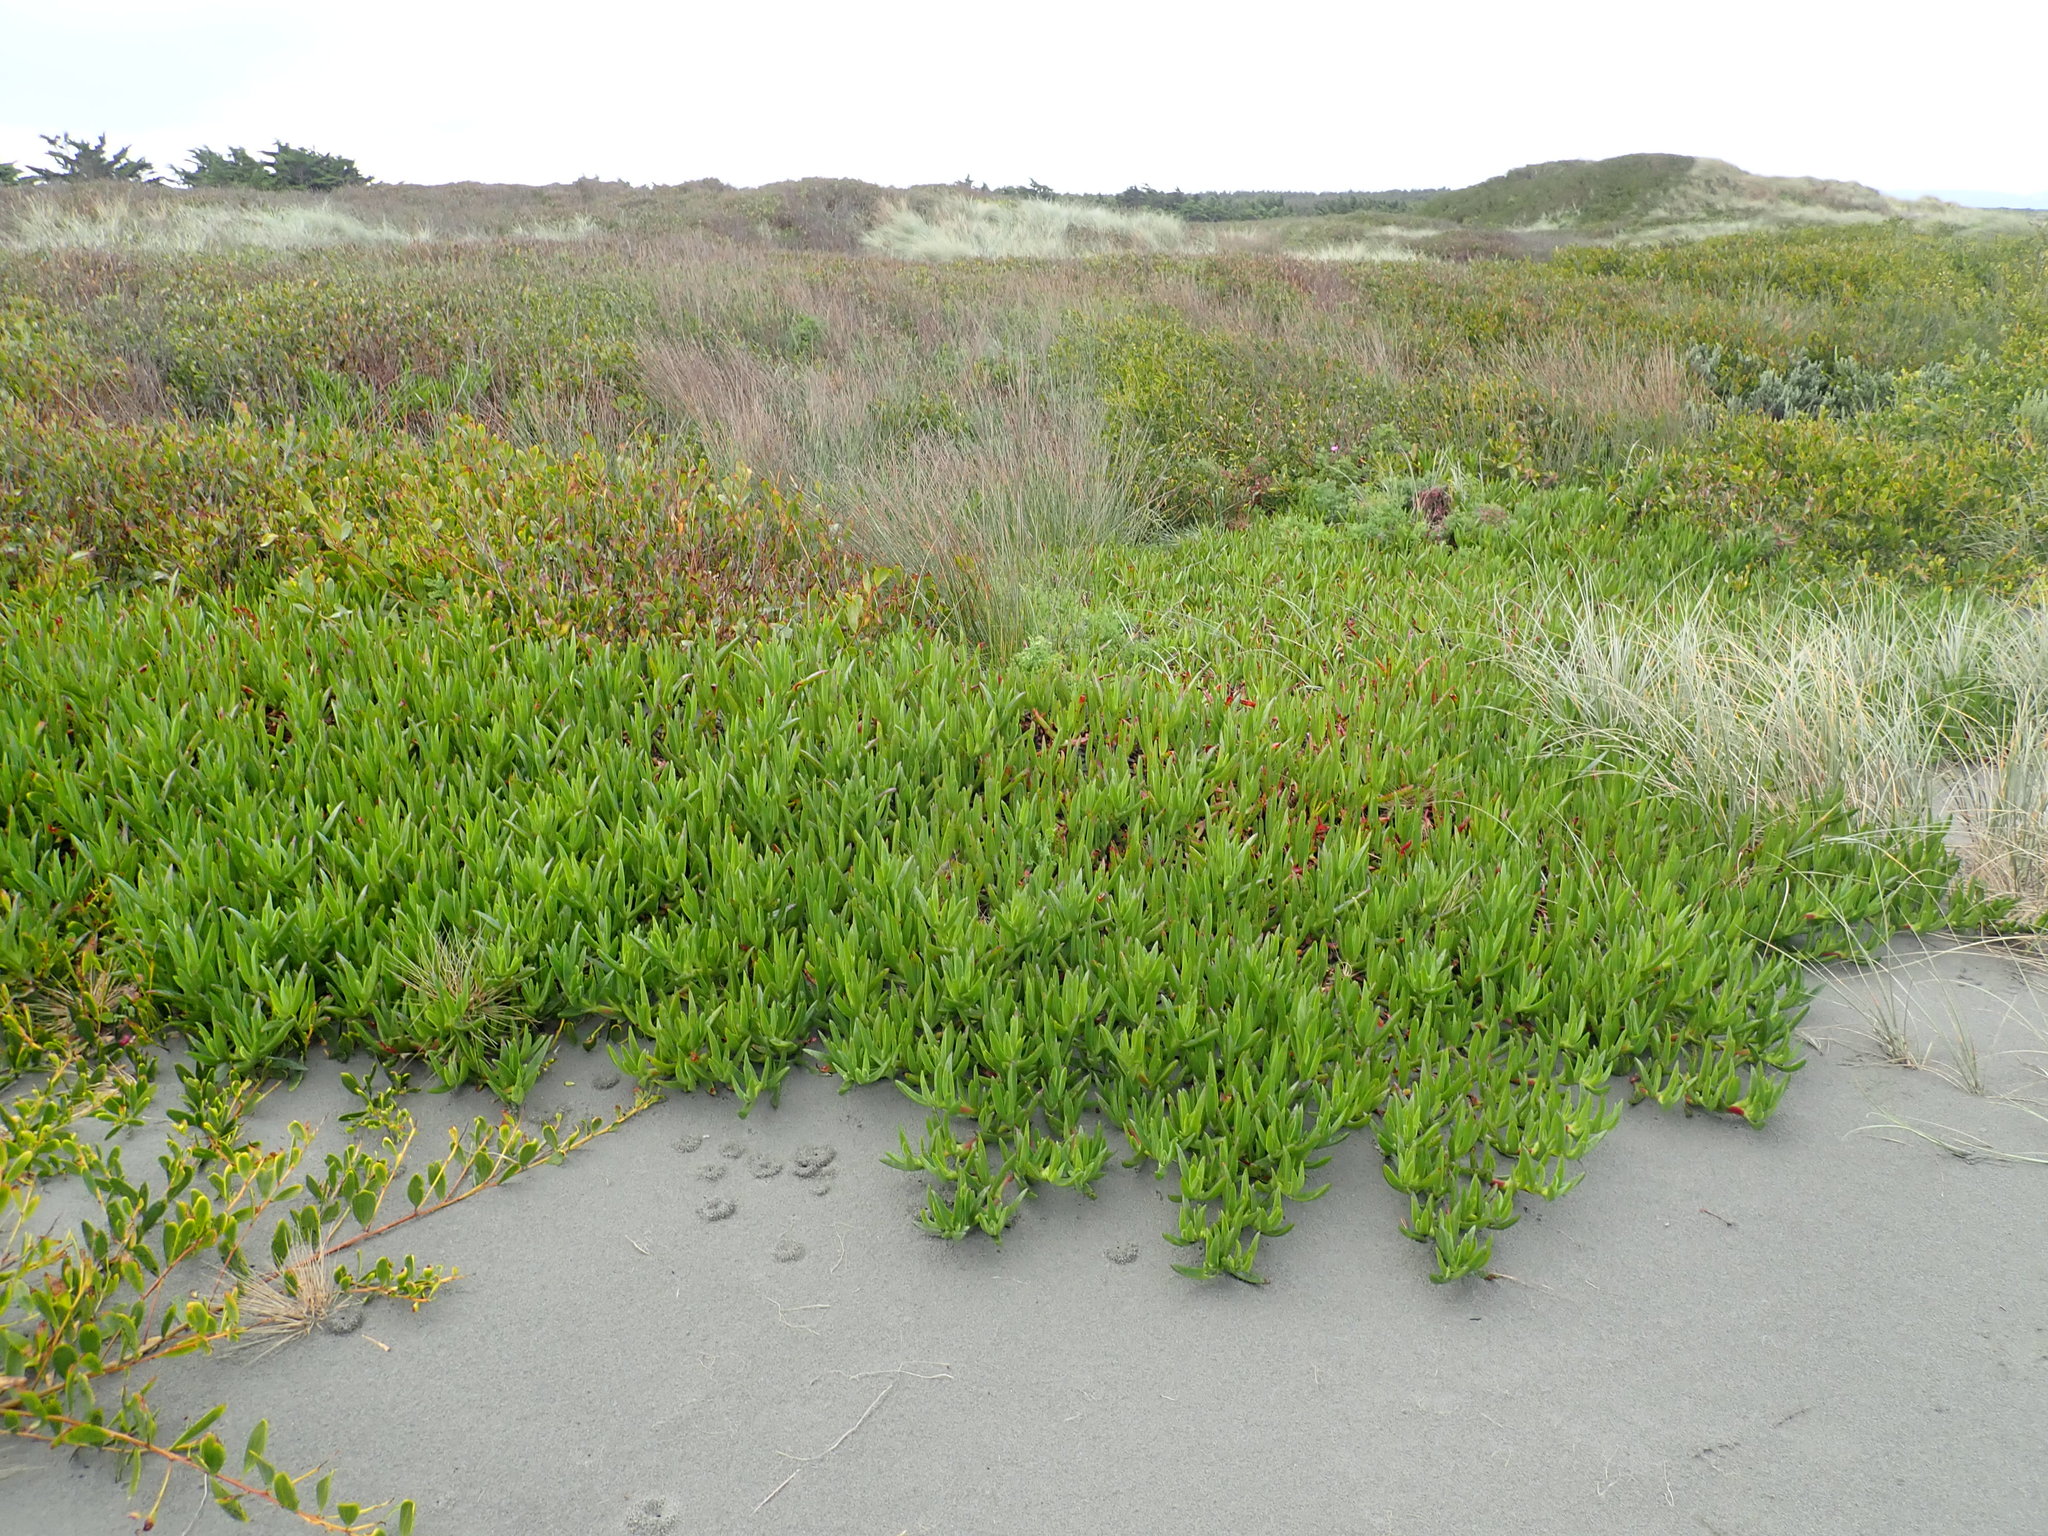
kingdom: Plantae
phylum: Tracheophyta
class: Magnoliopsida
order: Caryophyllales
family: Aizoaceae
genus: Carpobrotus
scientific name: Carpobrotus
